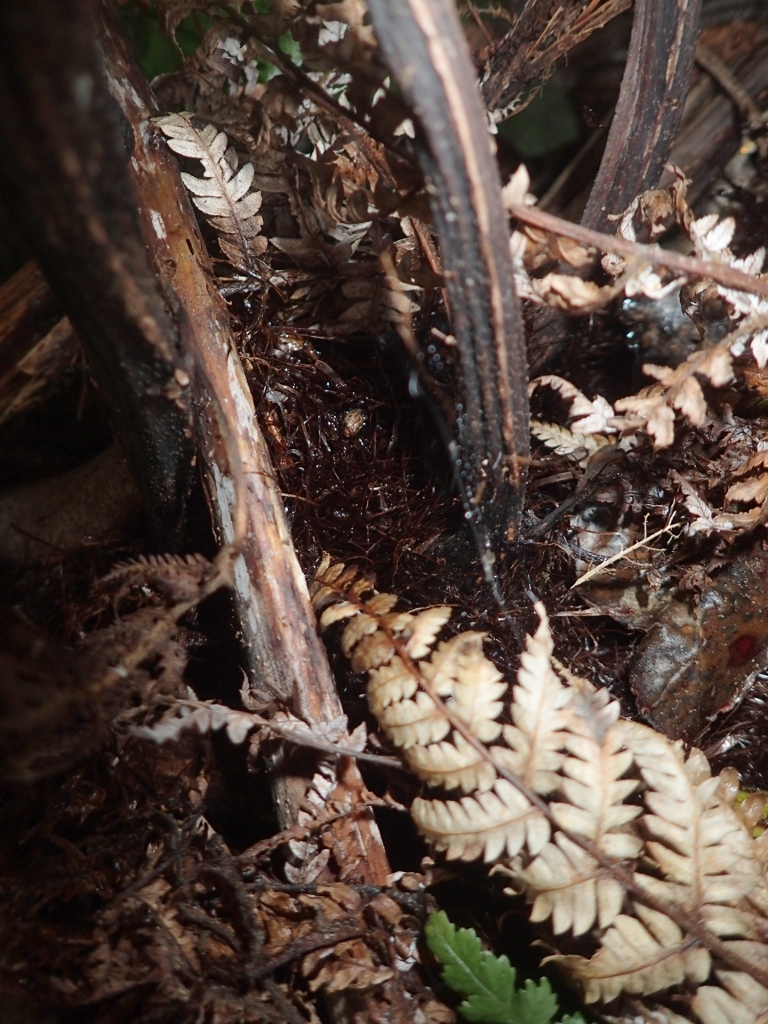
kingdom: Plantae
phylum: Tracheophyta
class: Polypodiopsida
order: Cyatheales
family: Cyatheaceae
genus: Alsophila
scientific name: Alsophila dealbata
